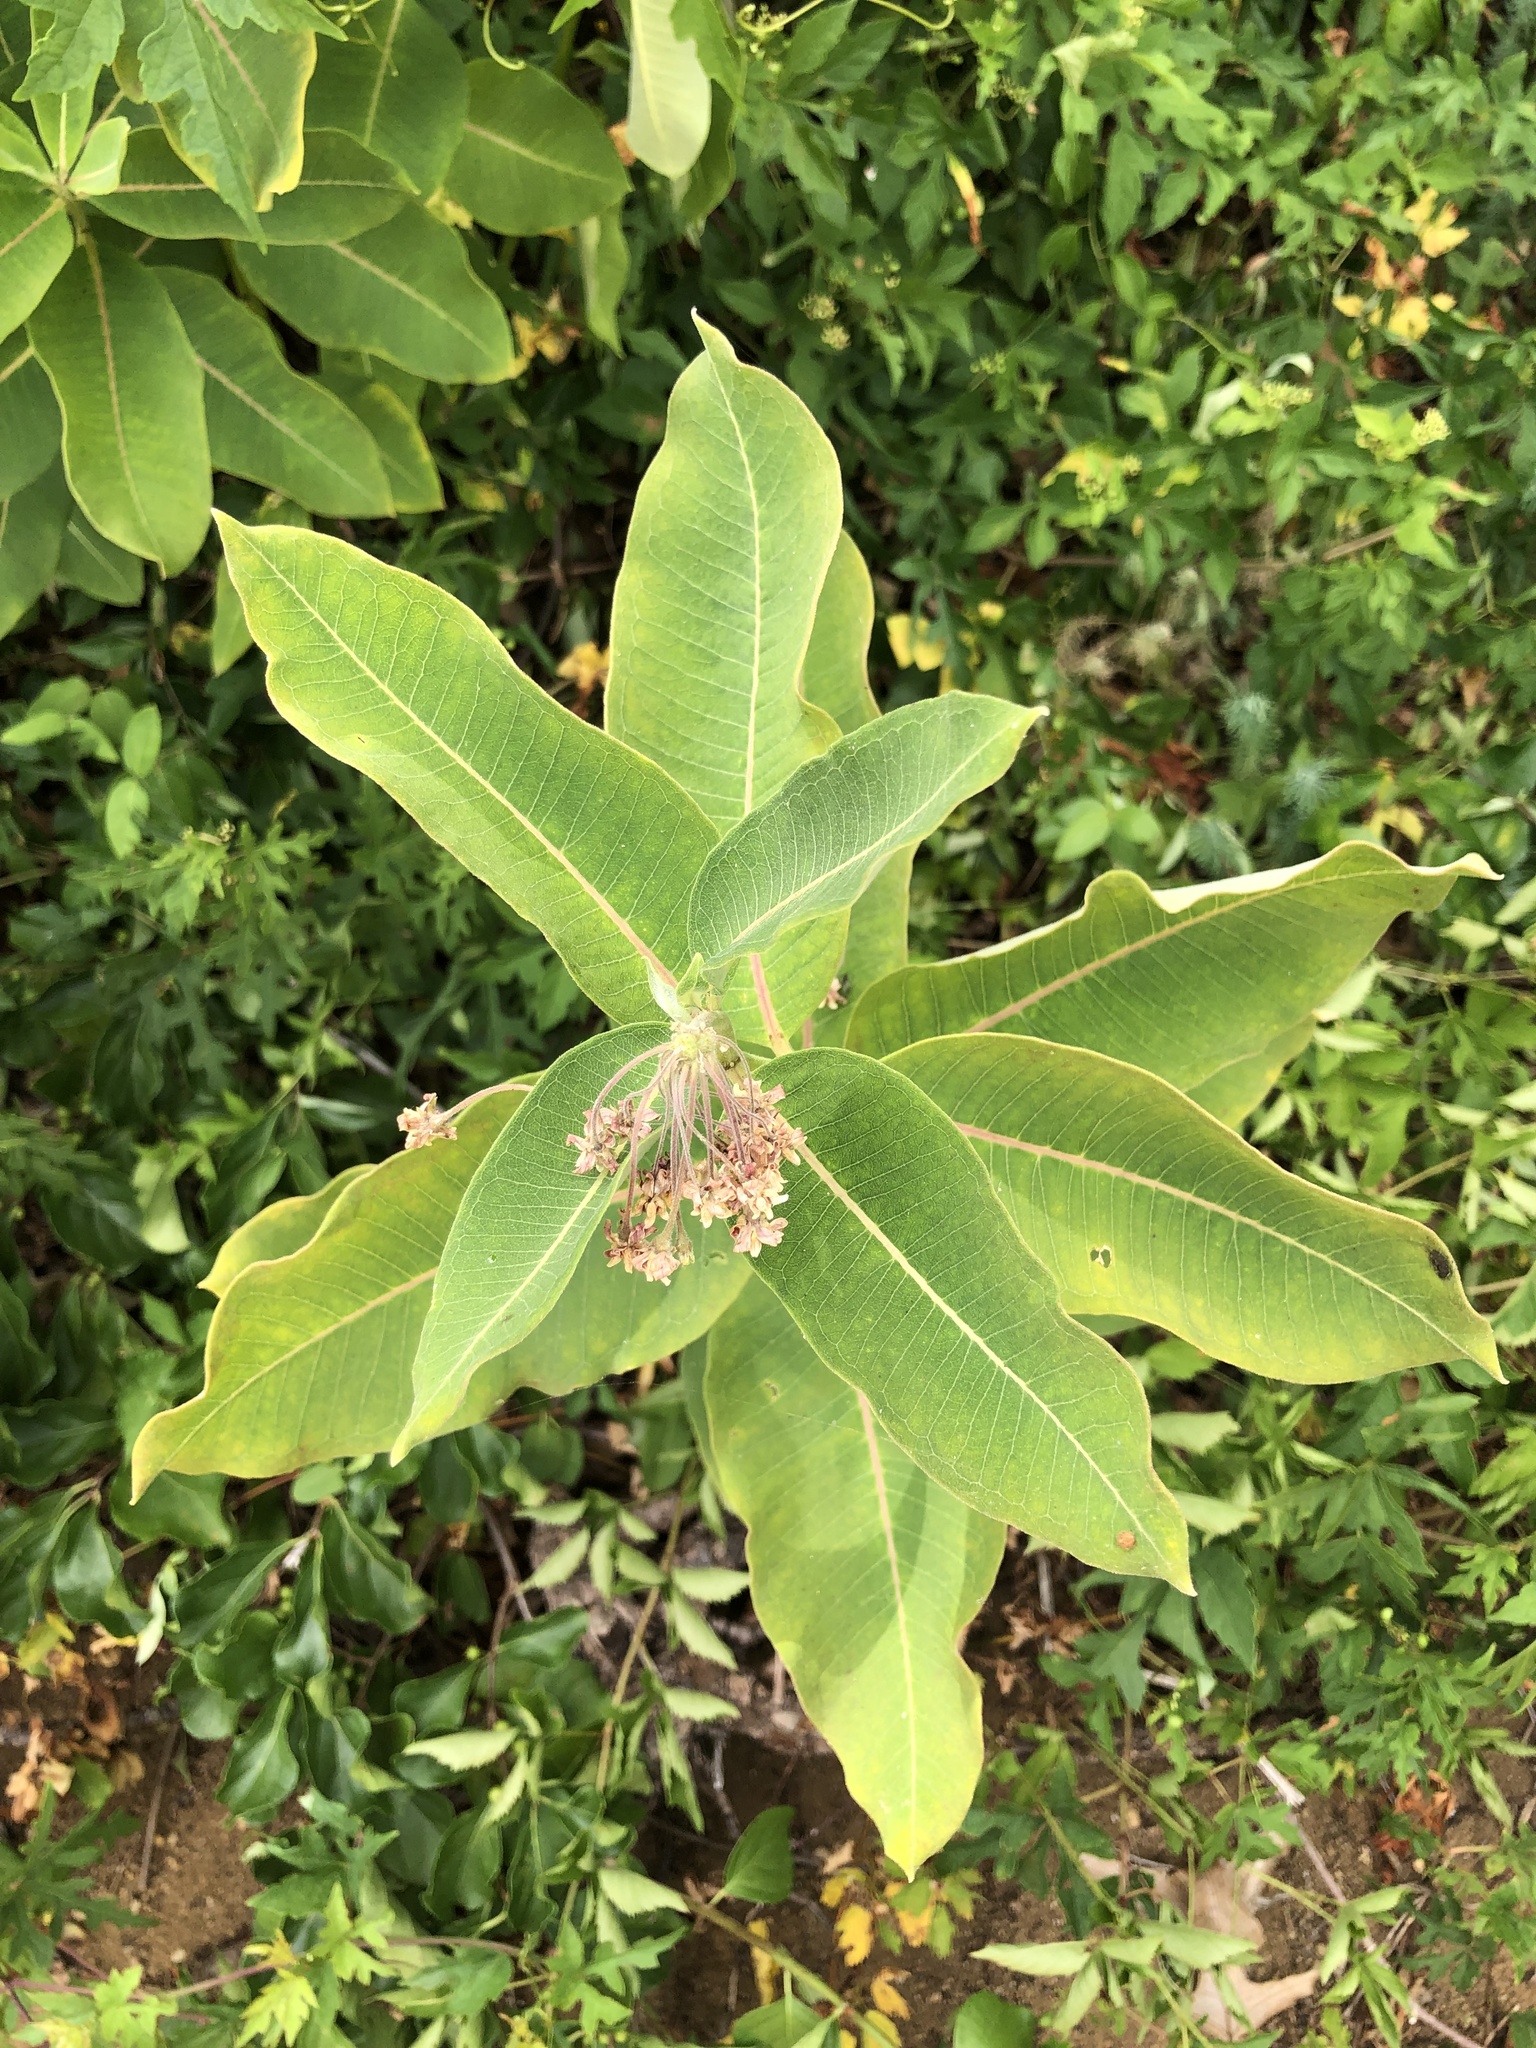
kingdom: Plantae
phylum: Tracheophyta
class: Magnoliopsida
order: Gentianales
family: Apocynaceae
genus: Asclepias
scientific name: Asclepias syriaca
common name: Common milkweed
